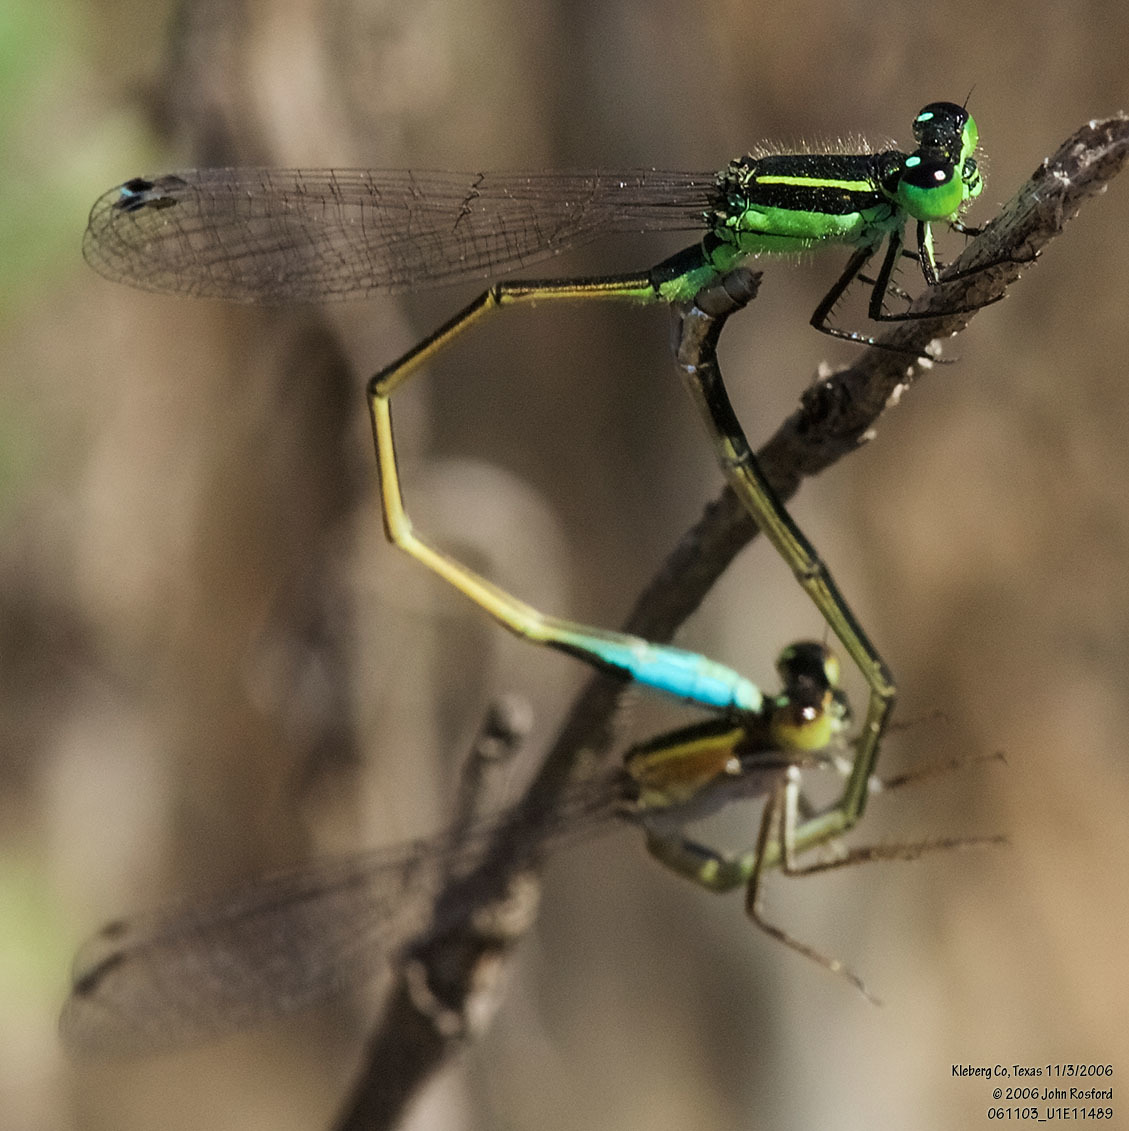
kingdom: Animalia
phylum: Arthropoda
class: Insecta
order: Odonata
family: Coenagrionidae
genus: Ischnura
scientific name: Ischnura ramburii
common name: Rambur's forktail
